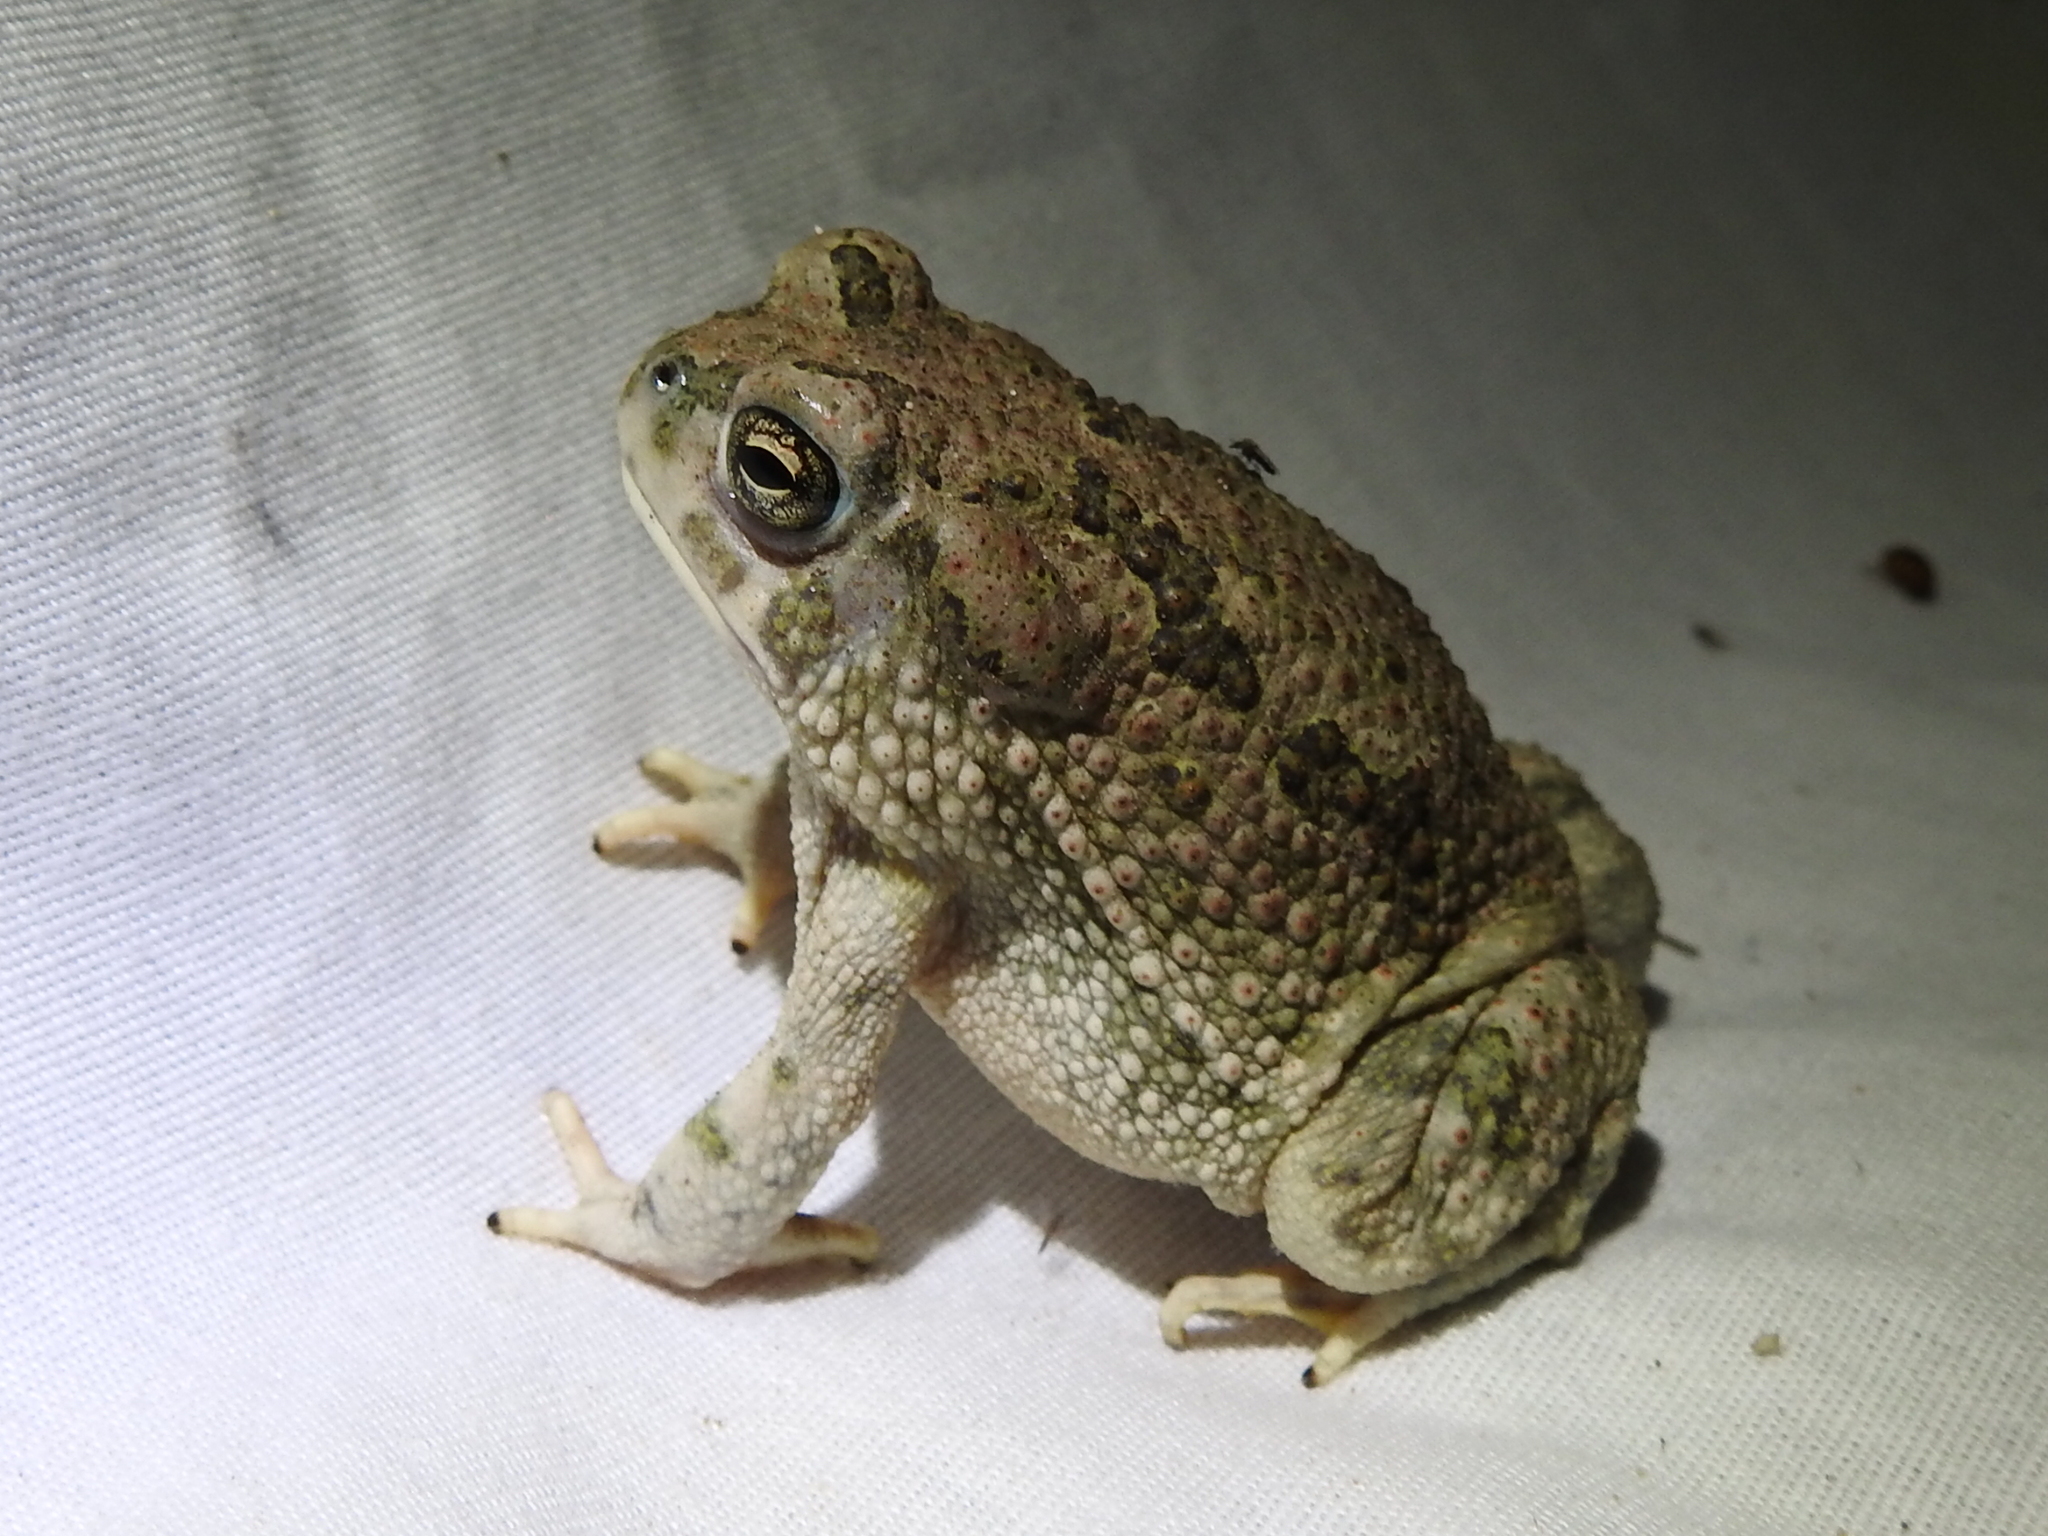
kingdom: Animalia
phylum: Chordata
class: Amphibia
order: Anura
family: Bufonidae
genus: Anaxyrus
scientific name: Anaxyrus speciosus
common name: Texas toad
